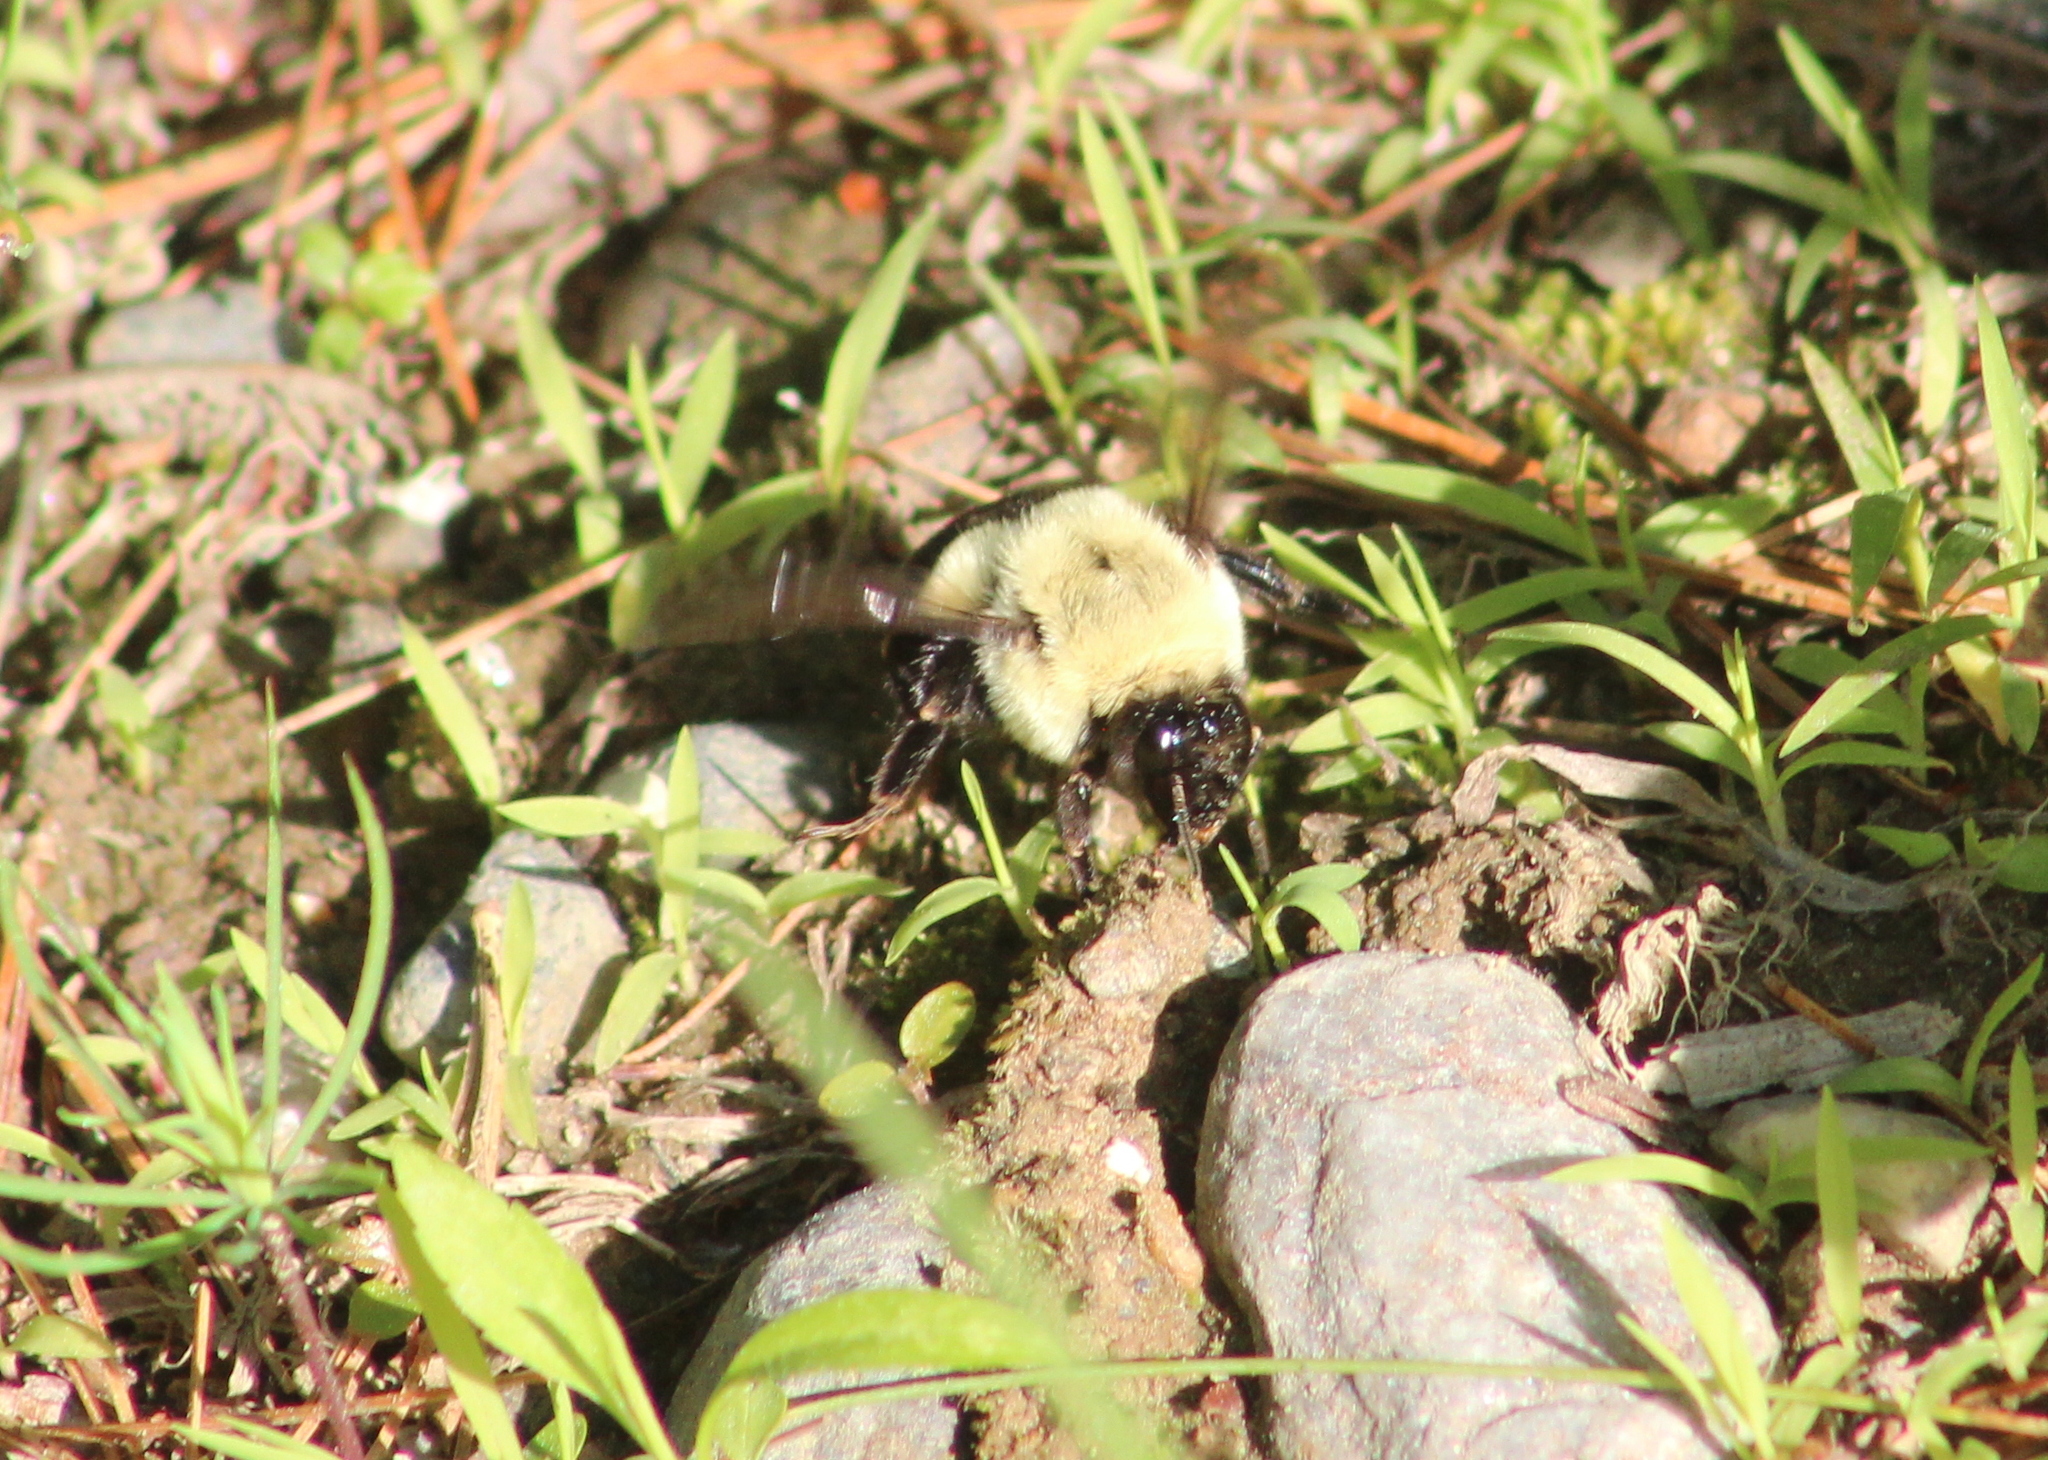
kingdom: Animalia
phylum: Arthropoda
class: Insecta
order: Hymenoptera
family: Apidae
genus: Bombus
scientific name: Bombus impatiens
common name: Common eastern bumble bee
